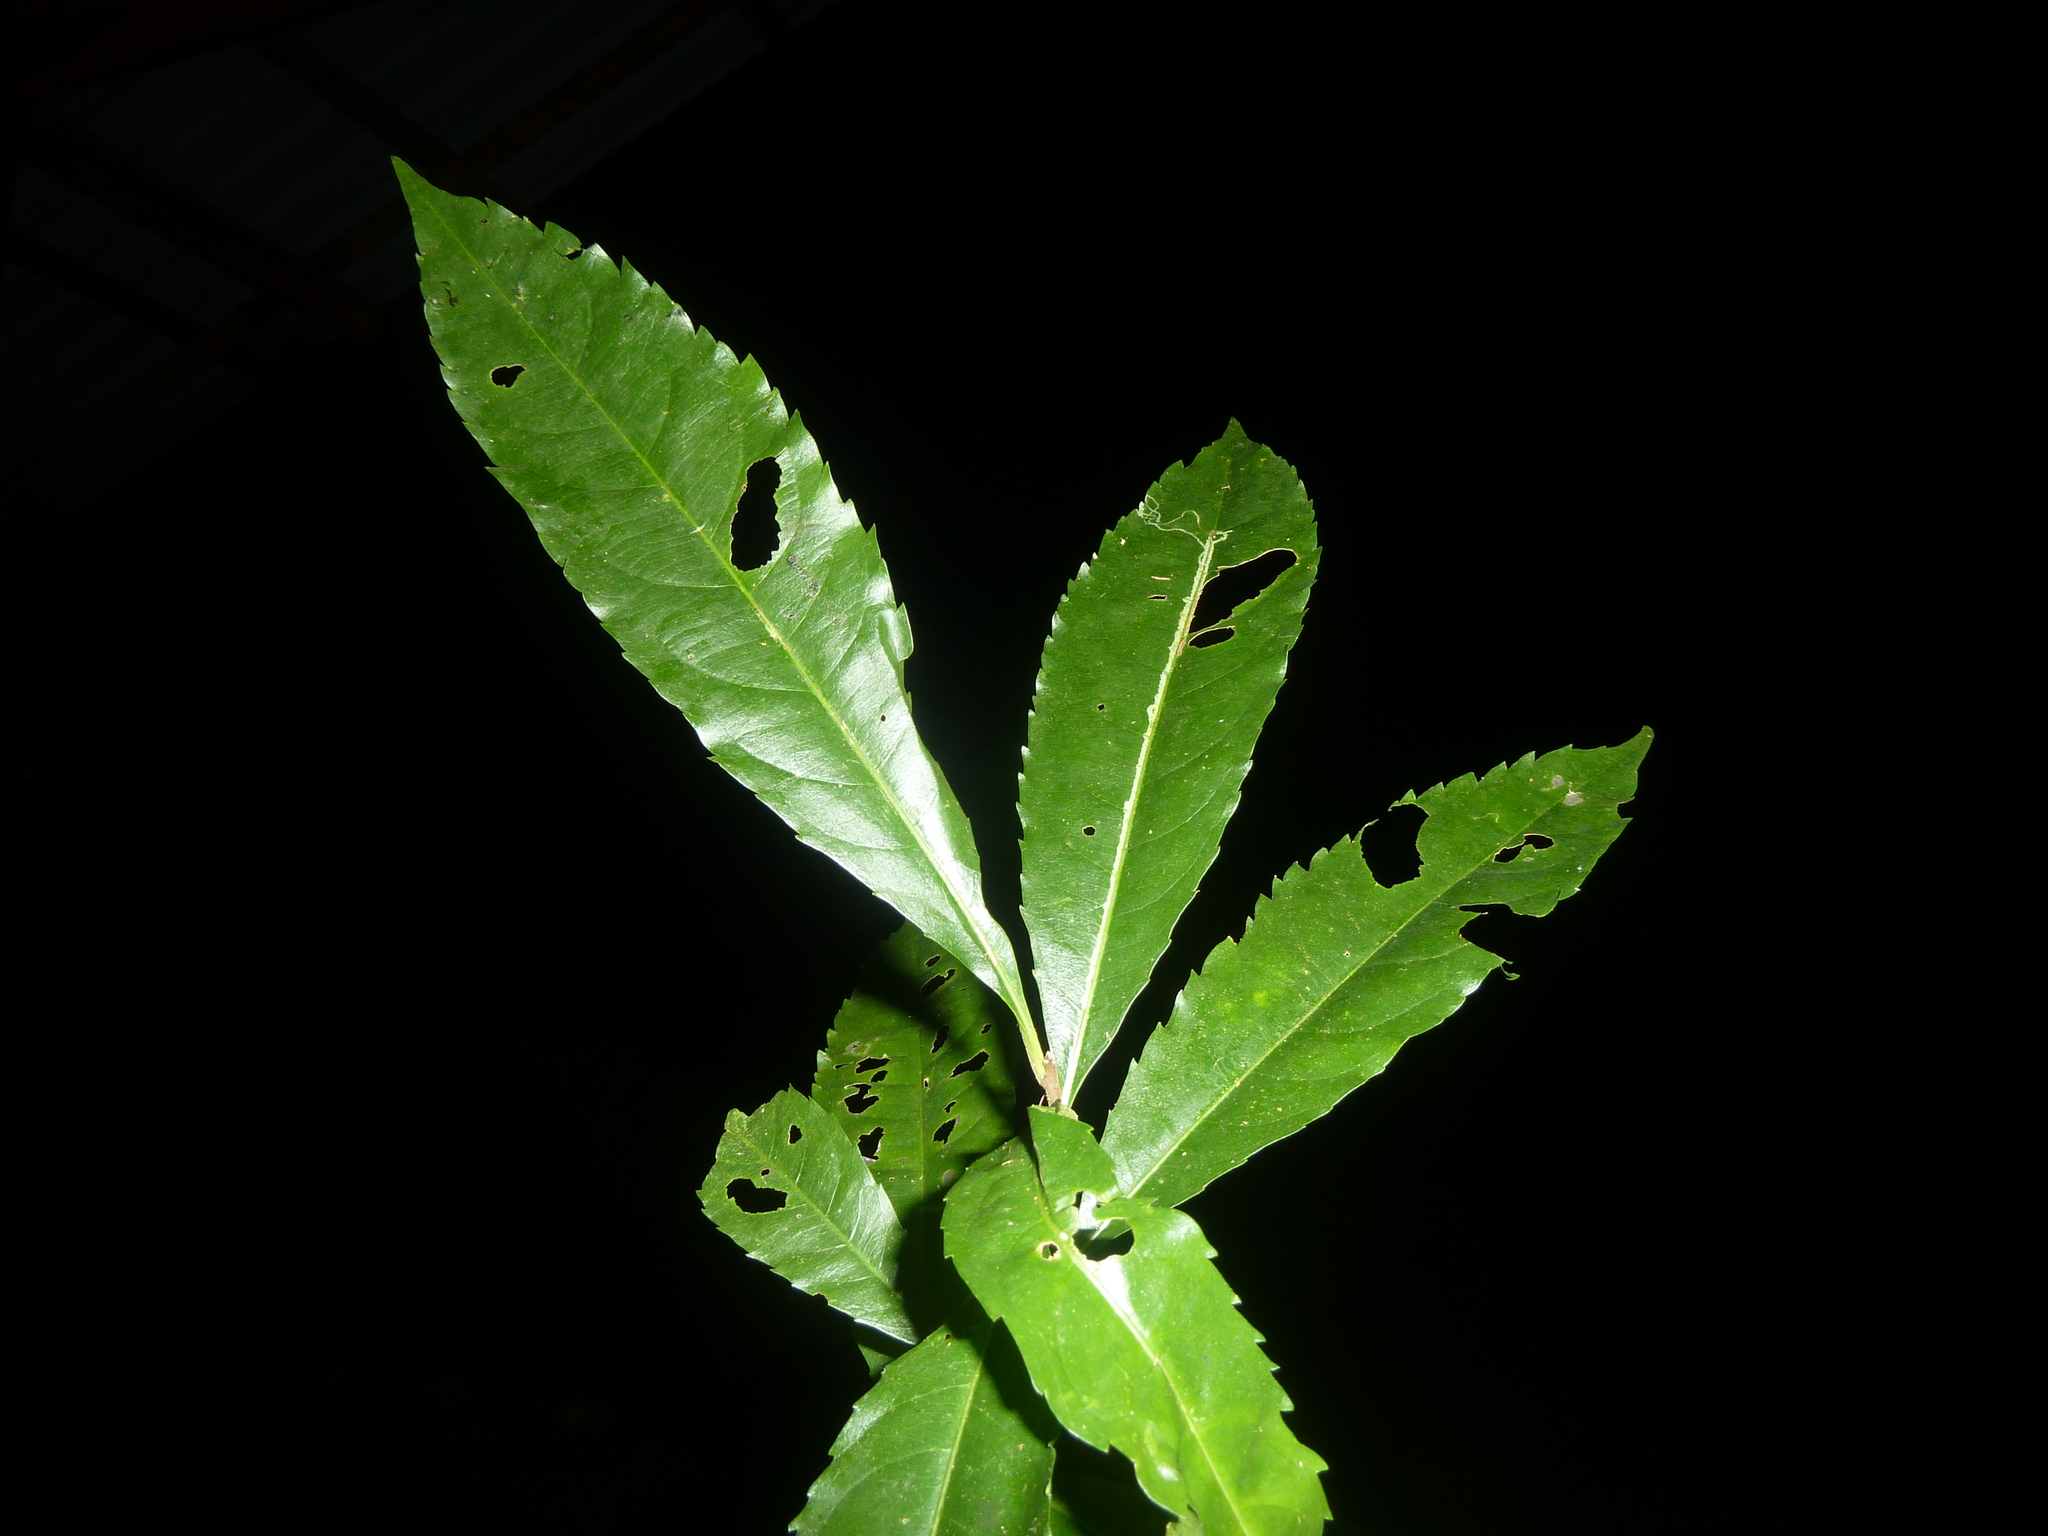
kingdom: Plantae
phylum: Tracheophyta
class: Magnoliopsida
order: Malpighiales
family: Turneraceae
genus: Erblichia
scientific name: Erblichia odorata
